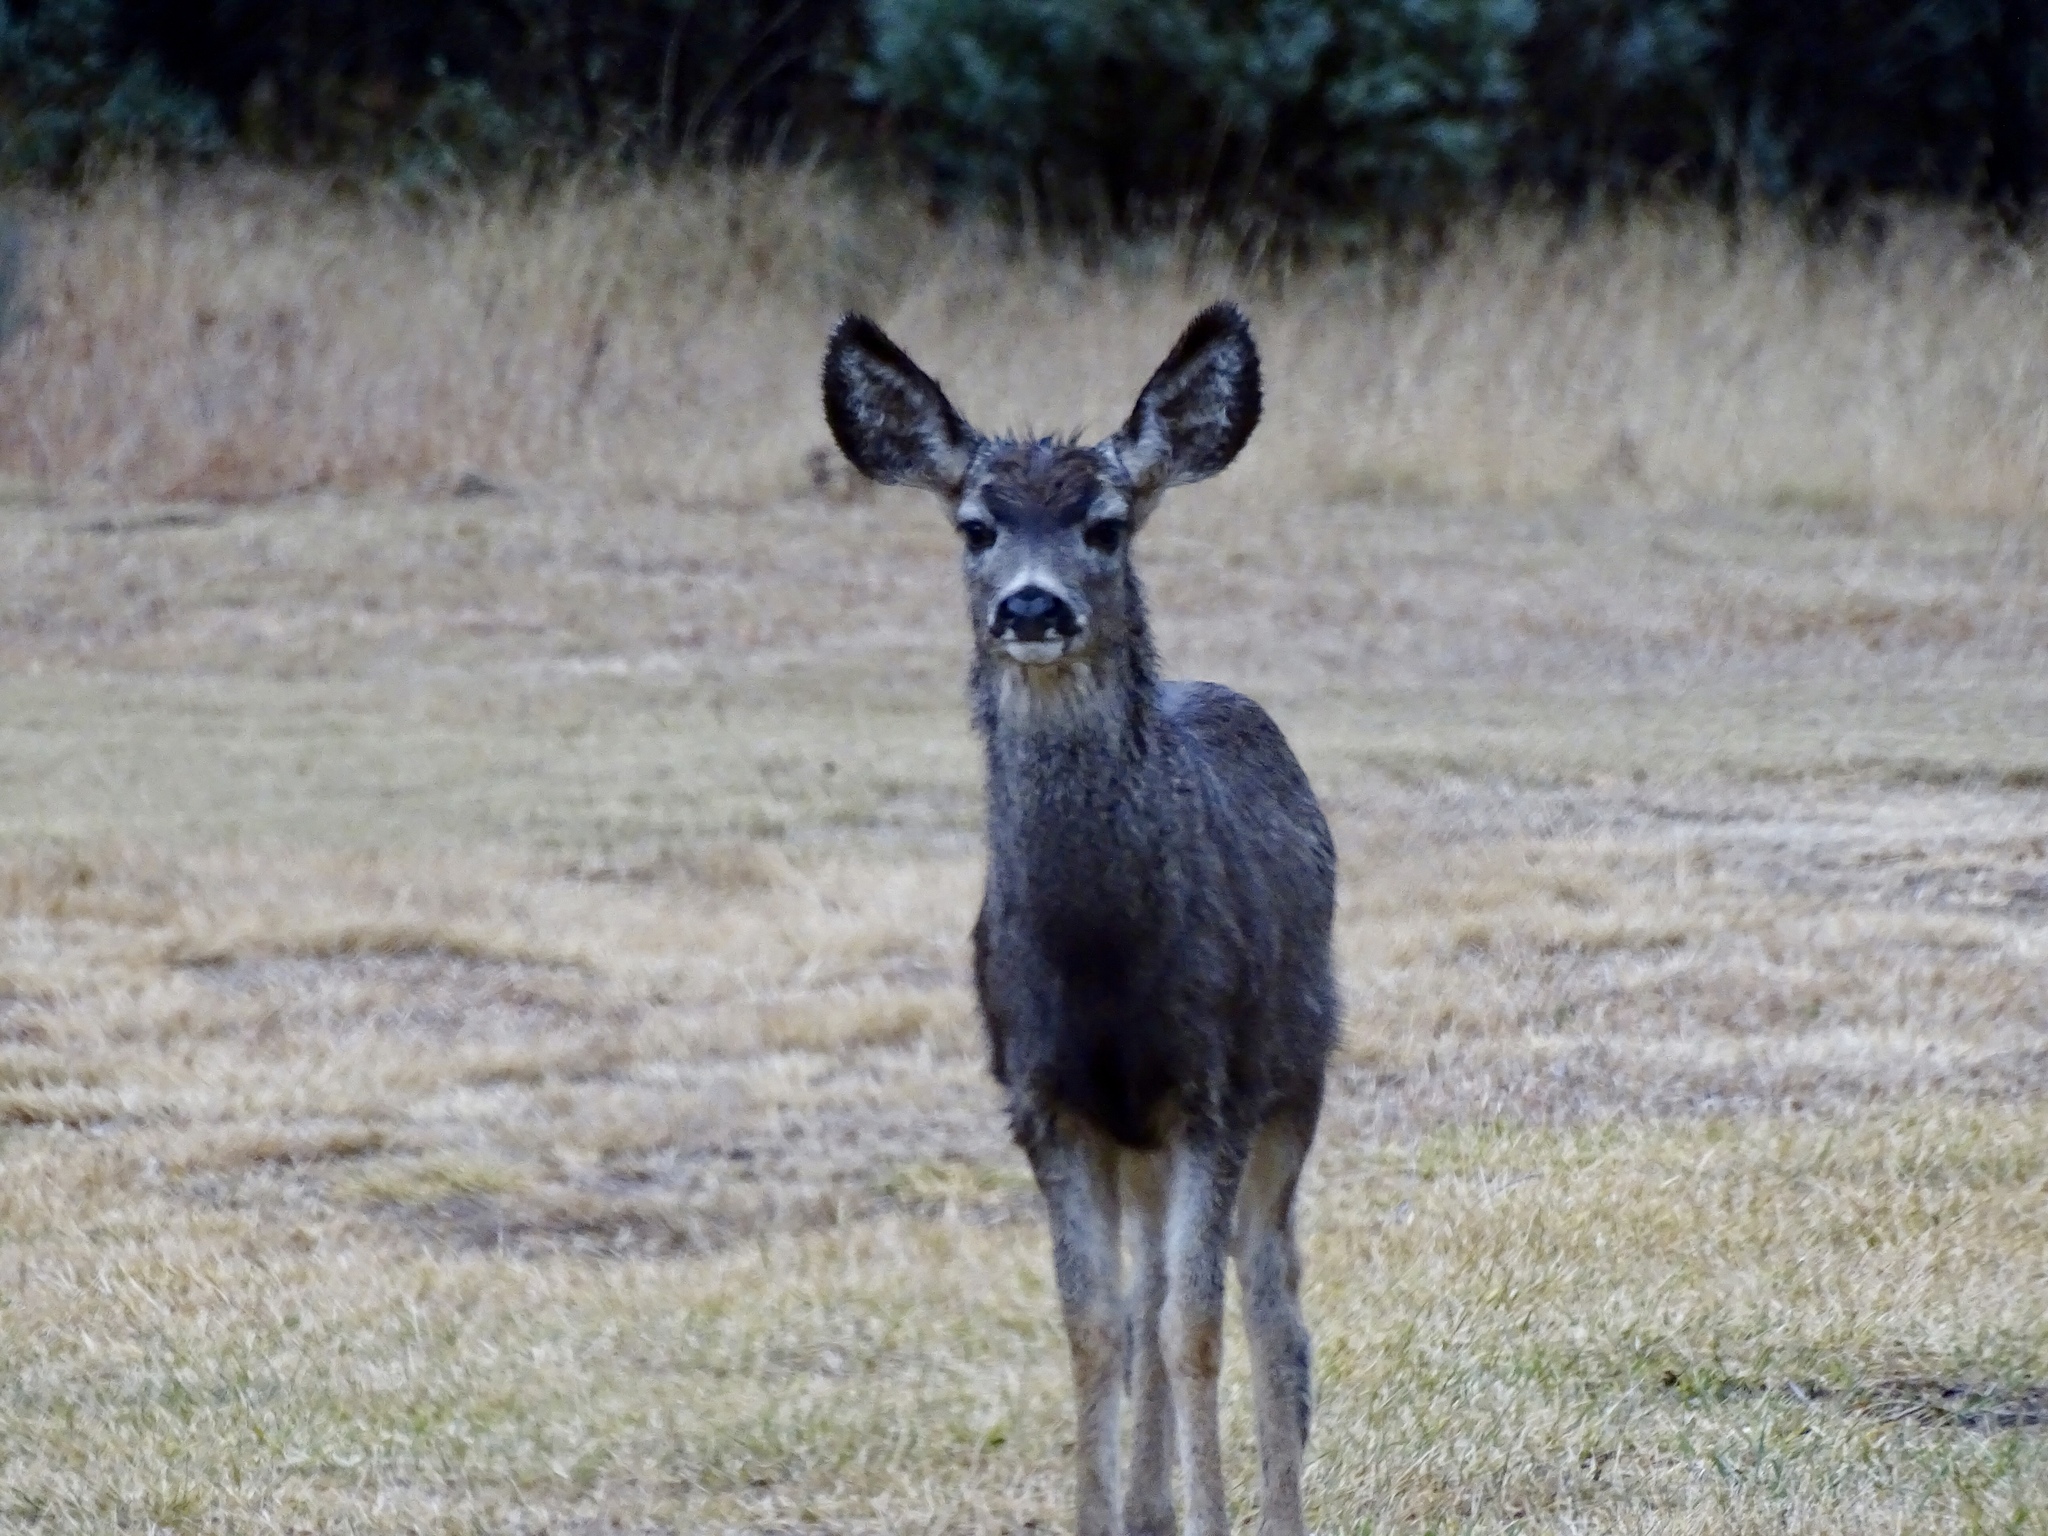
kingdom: Animalia
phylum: Chordata
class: Mammalia
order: Artiodactyla
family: Cervidae
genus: Odocoileus
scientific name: Odocoileus hemionus
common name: Mule deer
